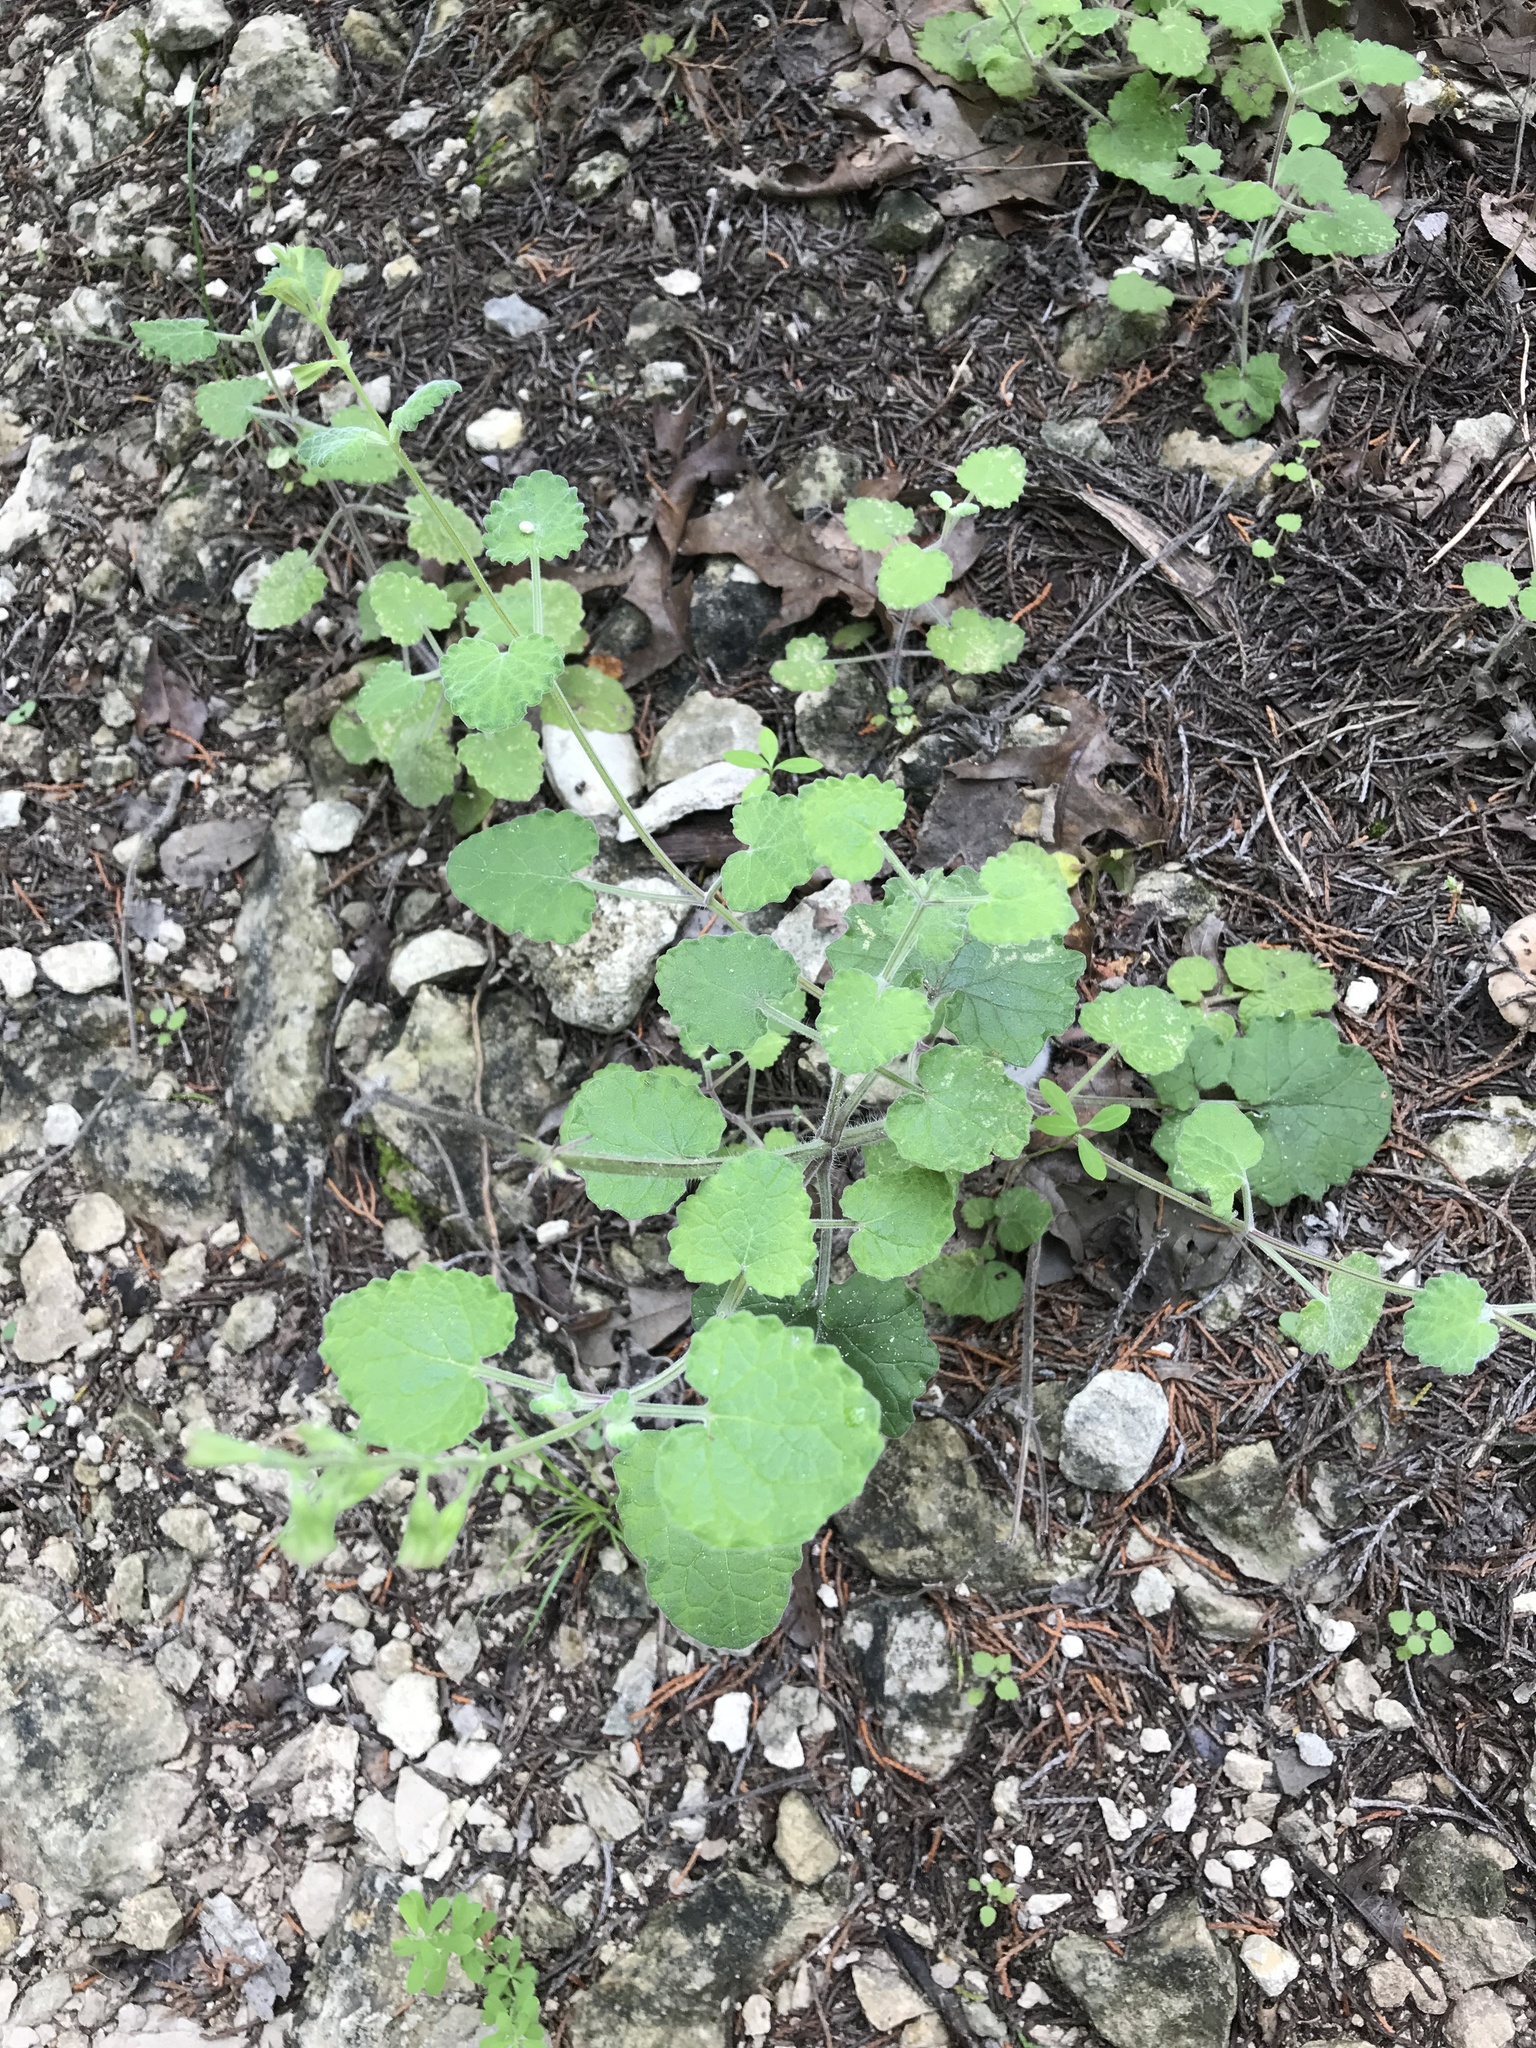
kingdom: Plantae
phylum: Tracheophyta
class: Magnoliopsida
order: Lamiales
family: Lamiaceae
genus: Salvia
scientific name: Salvia roemeriana
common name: Cedar sage
